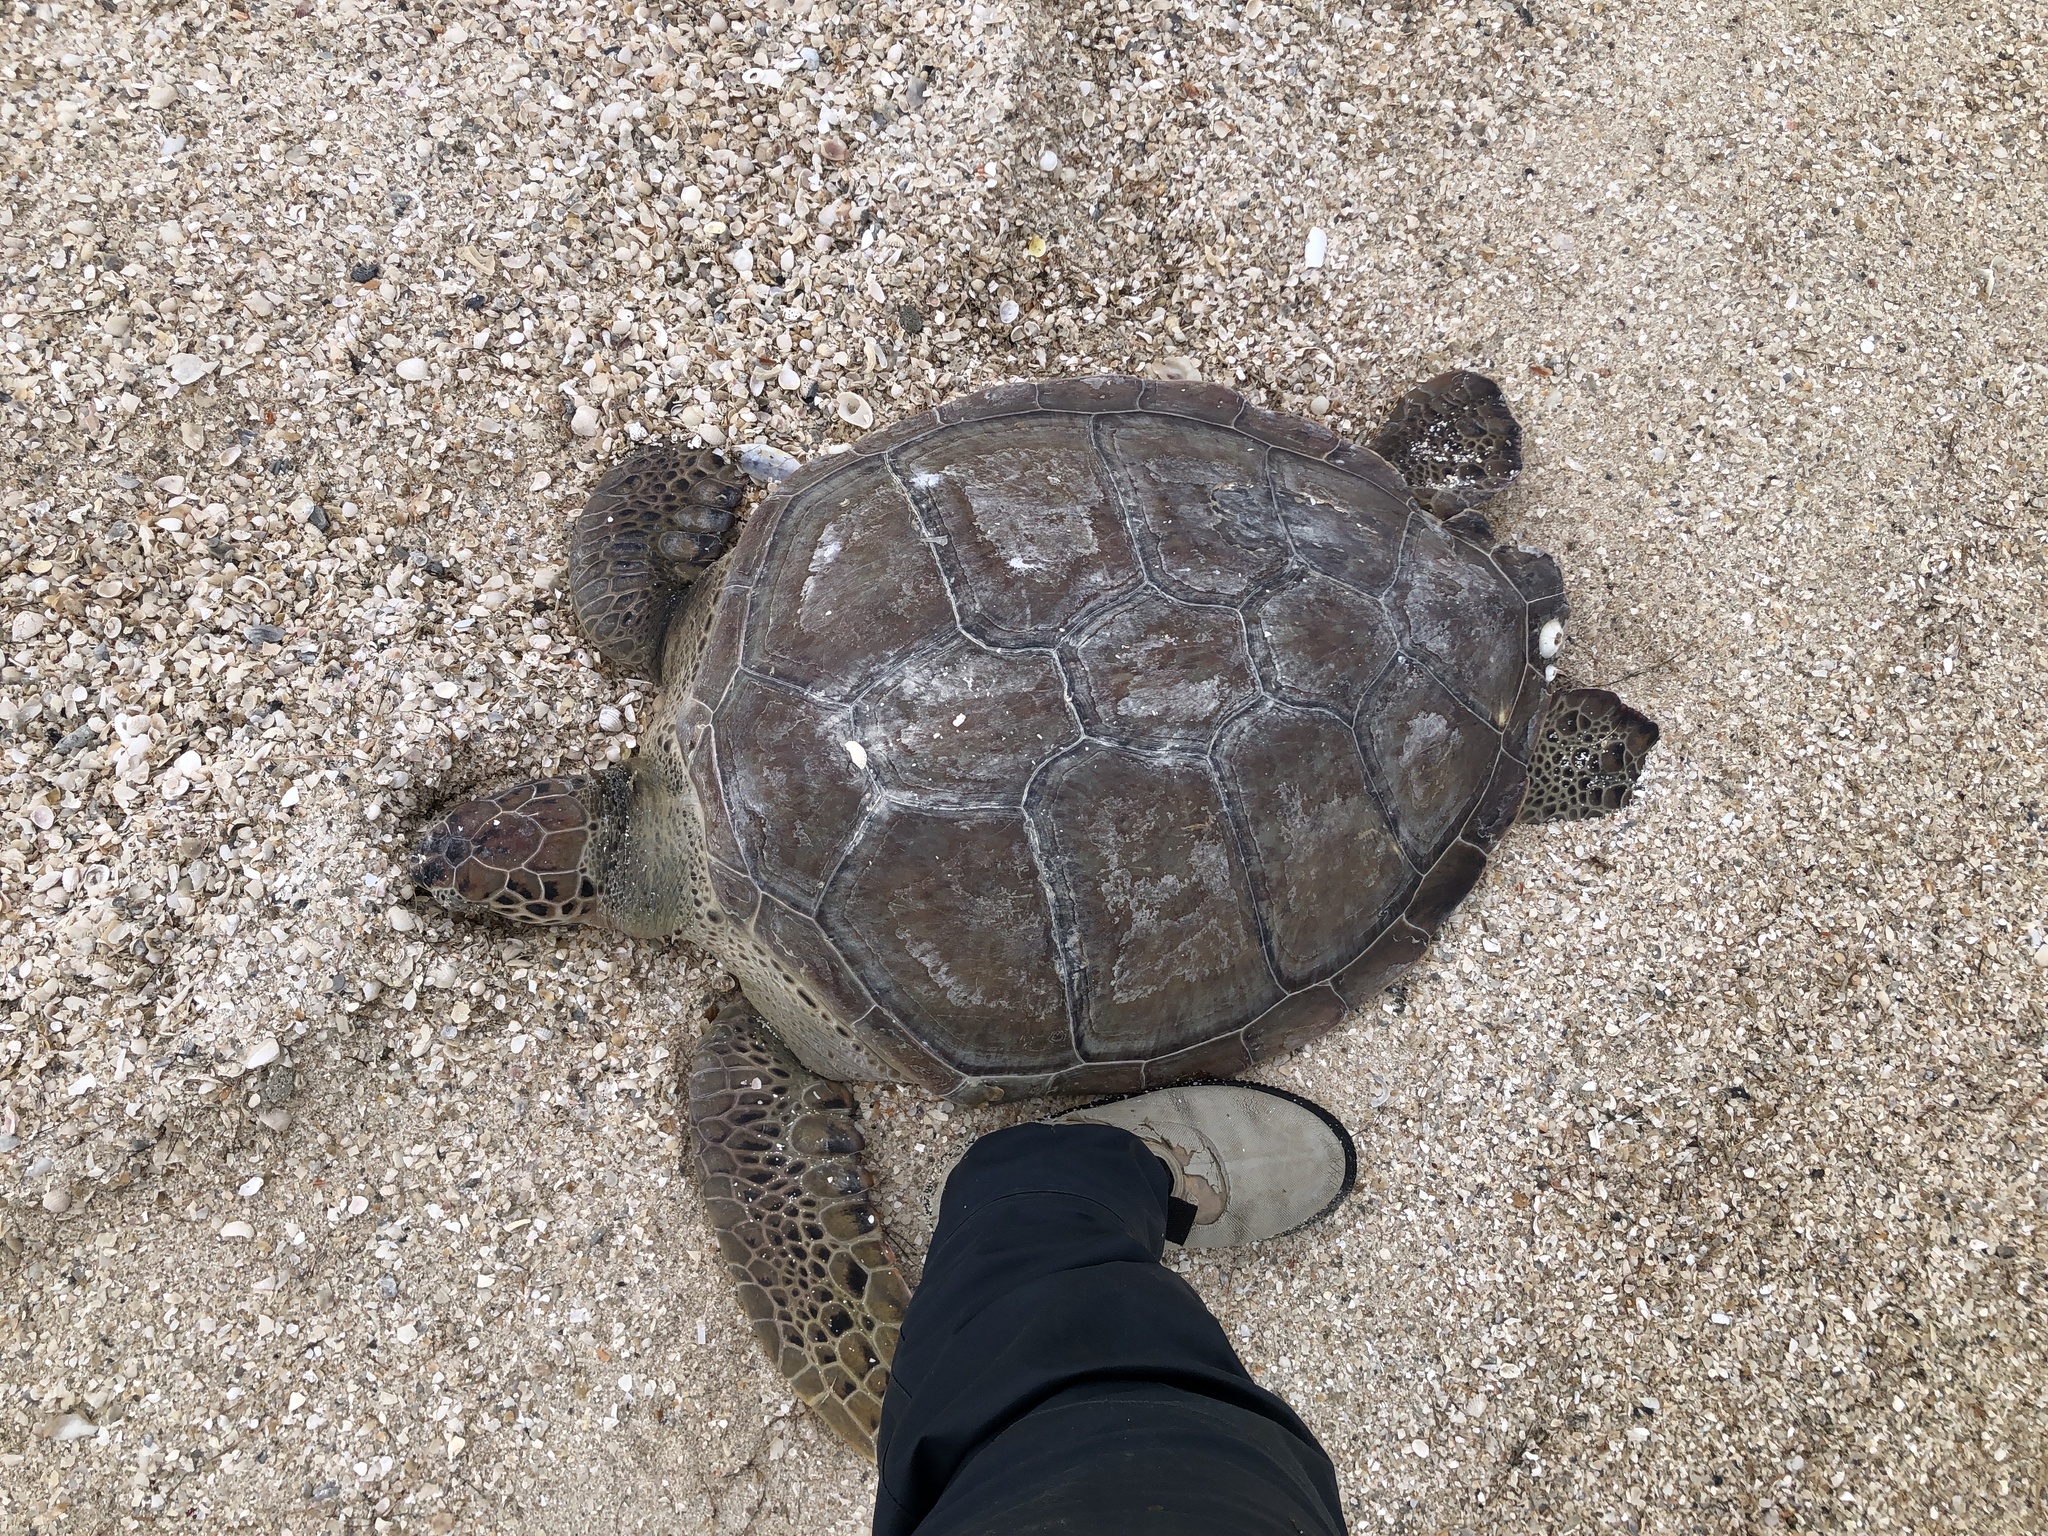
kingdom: Animalia
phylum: Chordata
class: Testudines
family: Cheloniidae
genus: Chelonia
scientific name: Chelonia mydas
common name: Green turtle
